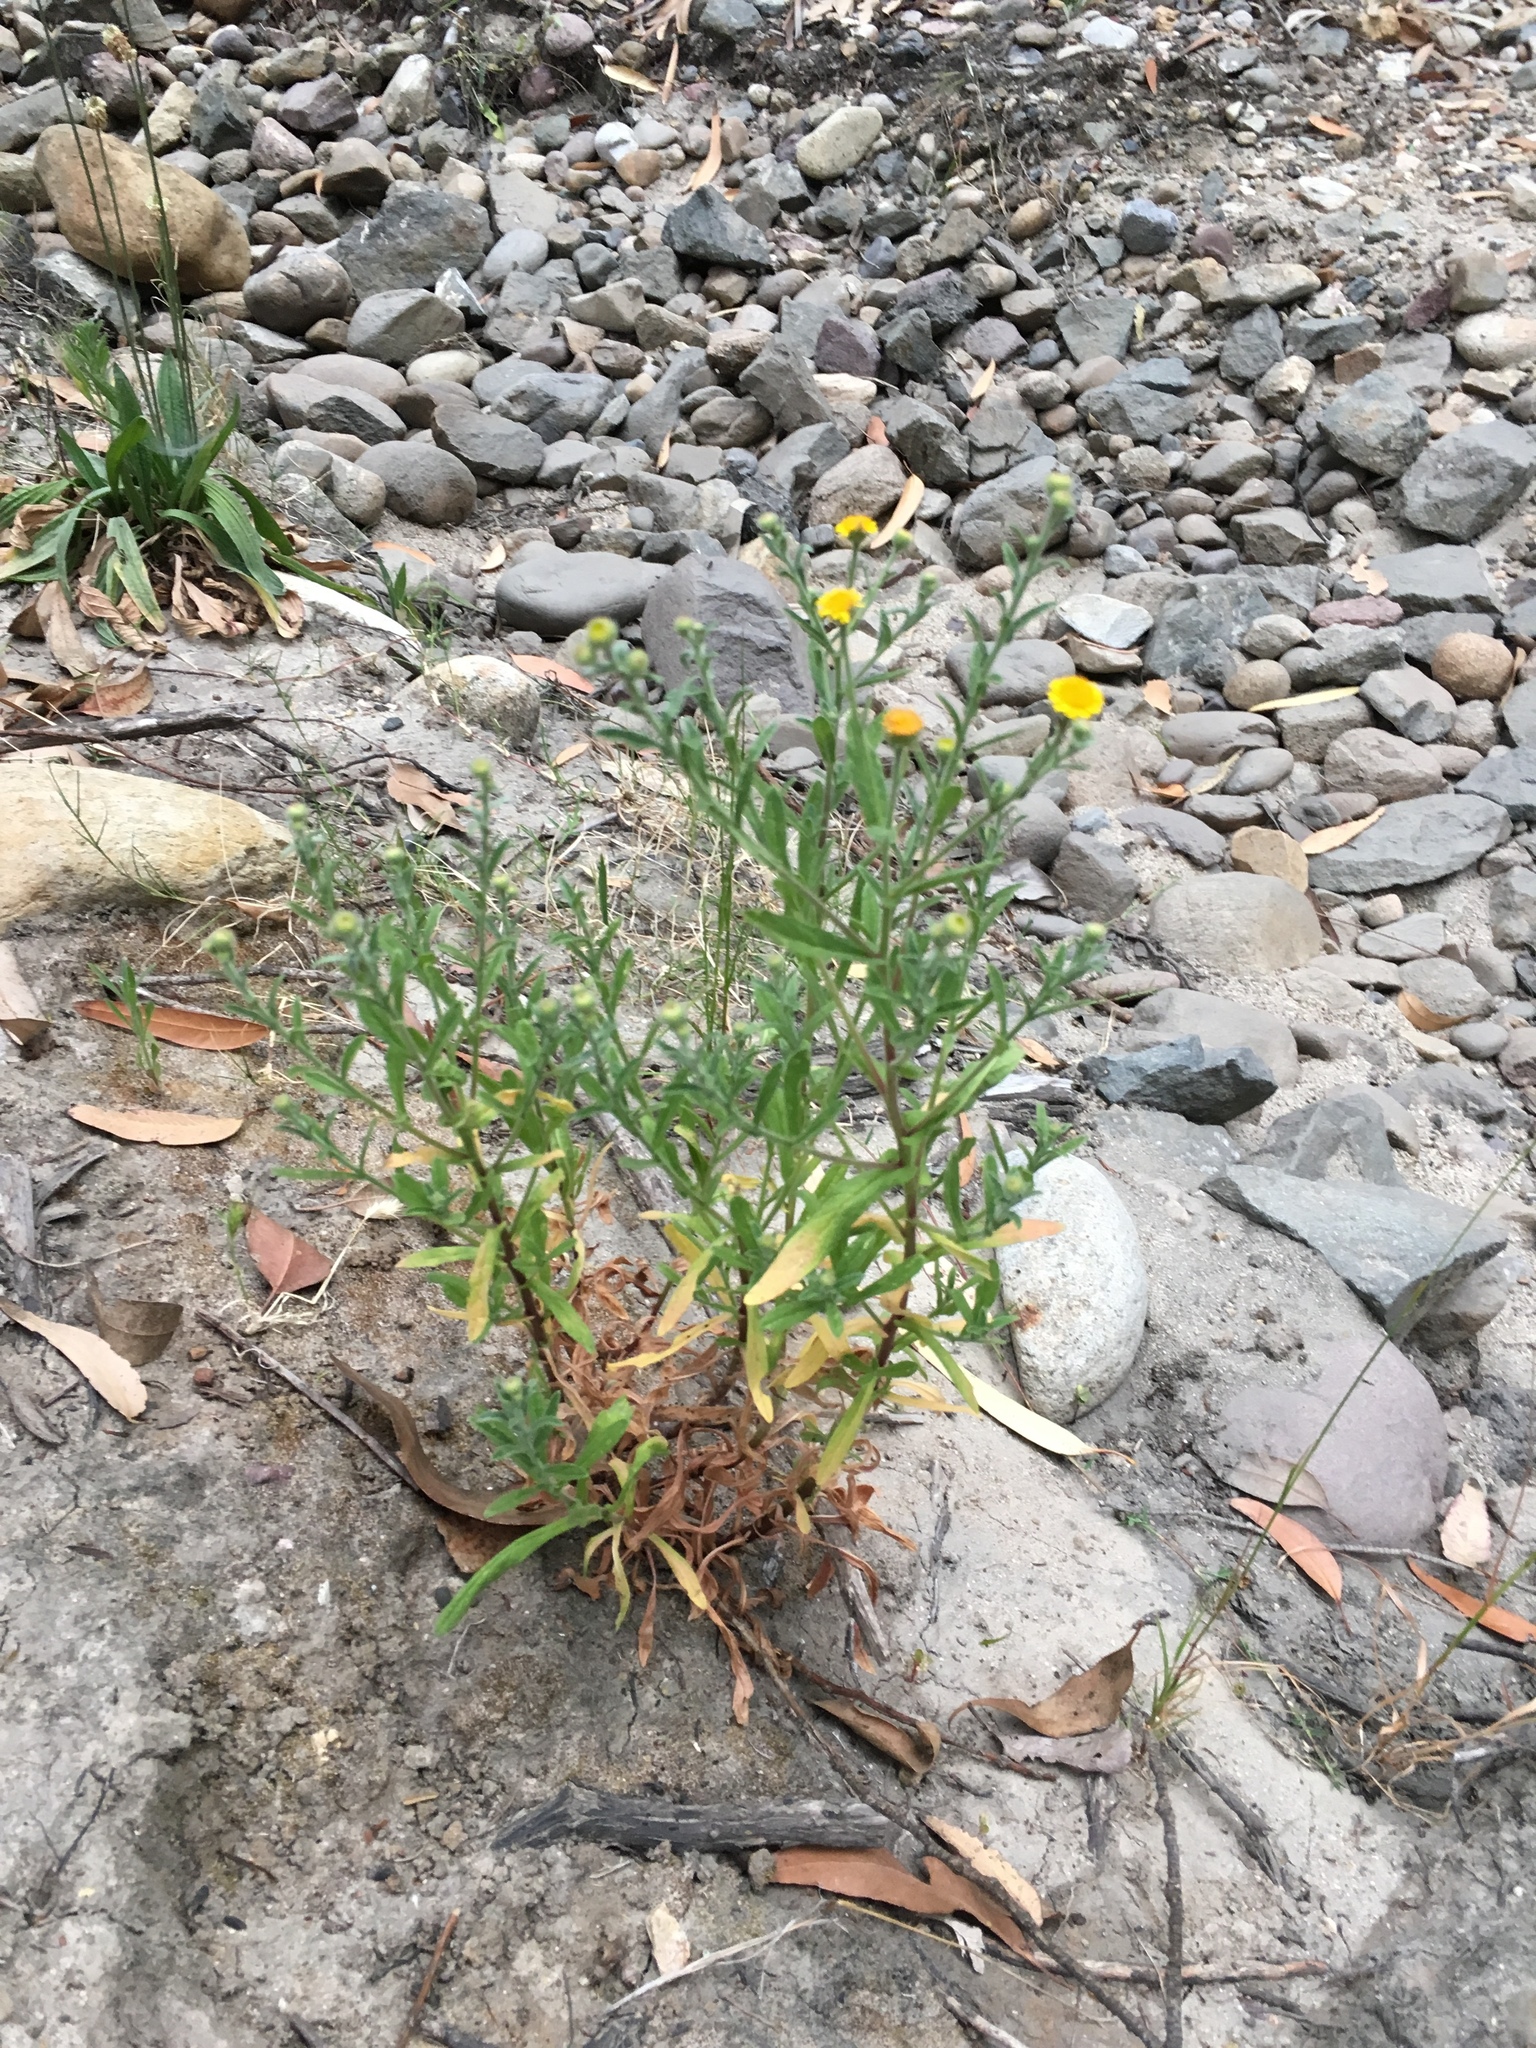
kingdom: Plantae
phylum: Tracheophyta
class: Magnoliopsida
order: Asterales
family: Asteraceae
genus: Pulicaria
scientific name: Pulicaria paludosa
